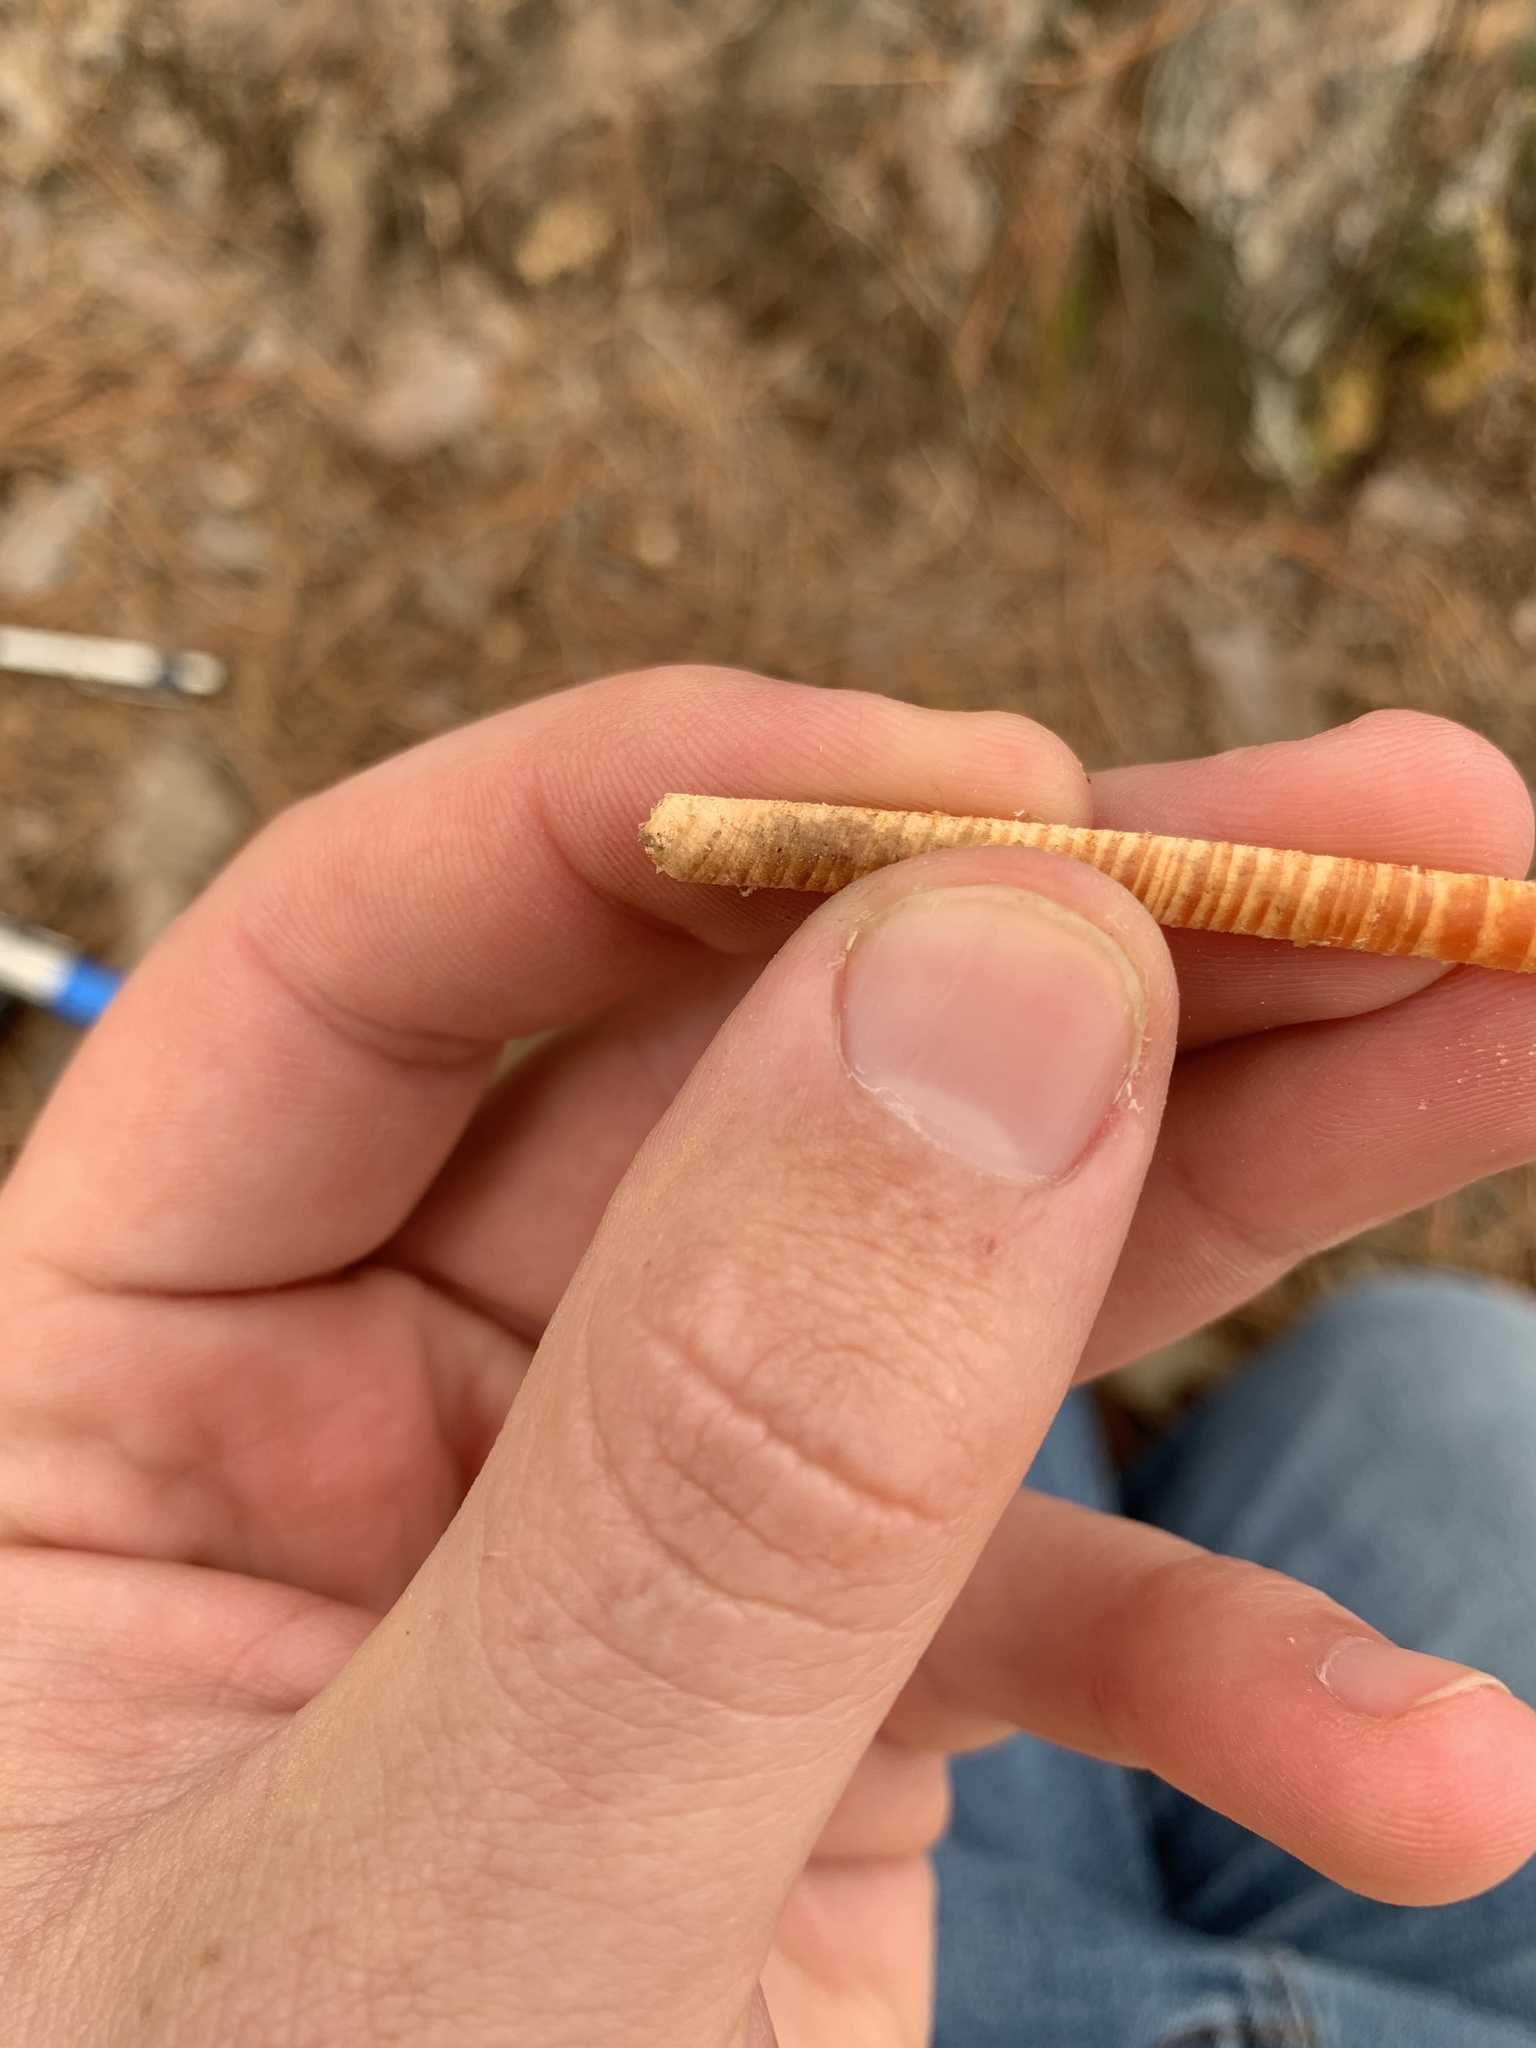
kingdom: Plantae
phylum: Tracheophyta
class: Pinopsida
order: Pinales
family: Pinaceae
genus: Pinus
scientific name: Pinus echinata
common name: Shortleaf pine
